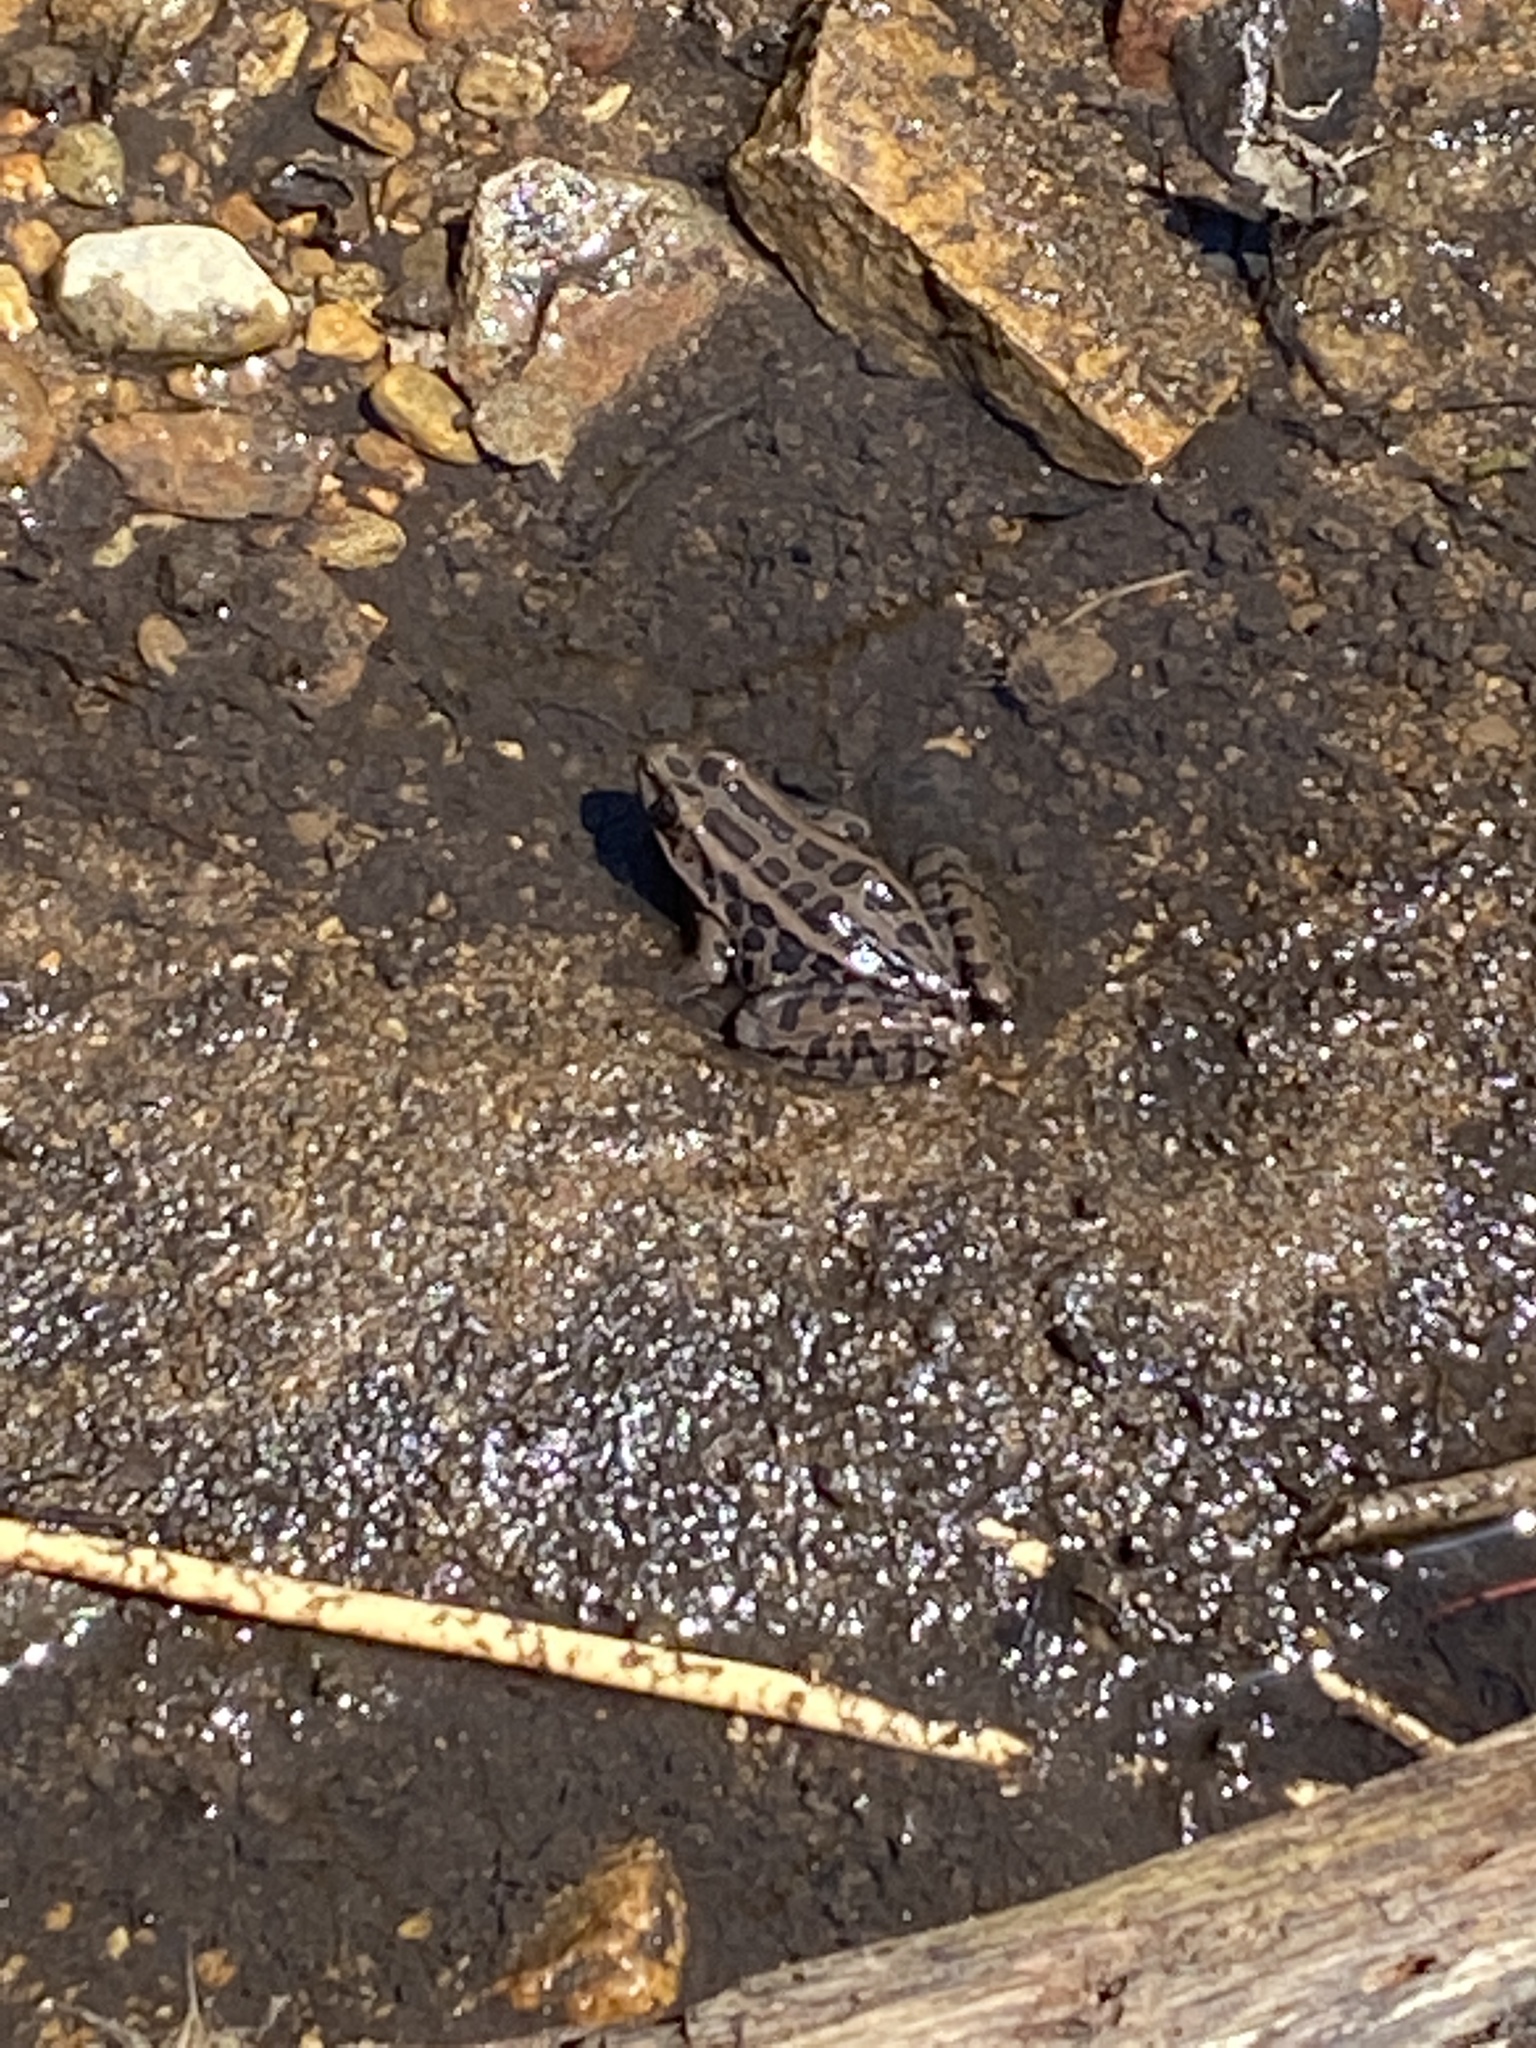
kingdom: Animalia
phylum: Chordata
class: Amphibia
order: Anura
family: Ranidae
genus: Lithobates
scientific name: Lithobates palustris
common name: Pickerel frog
